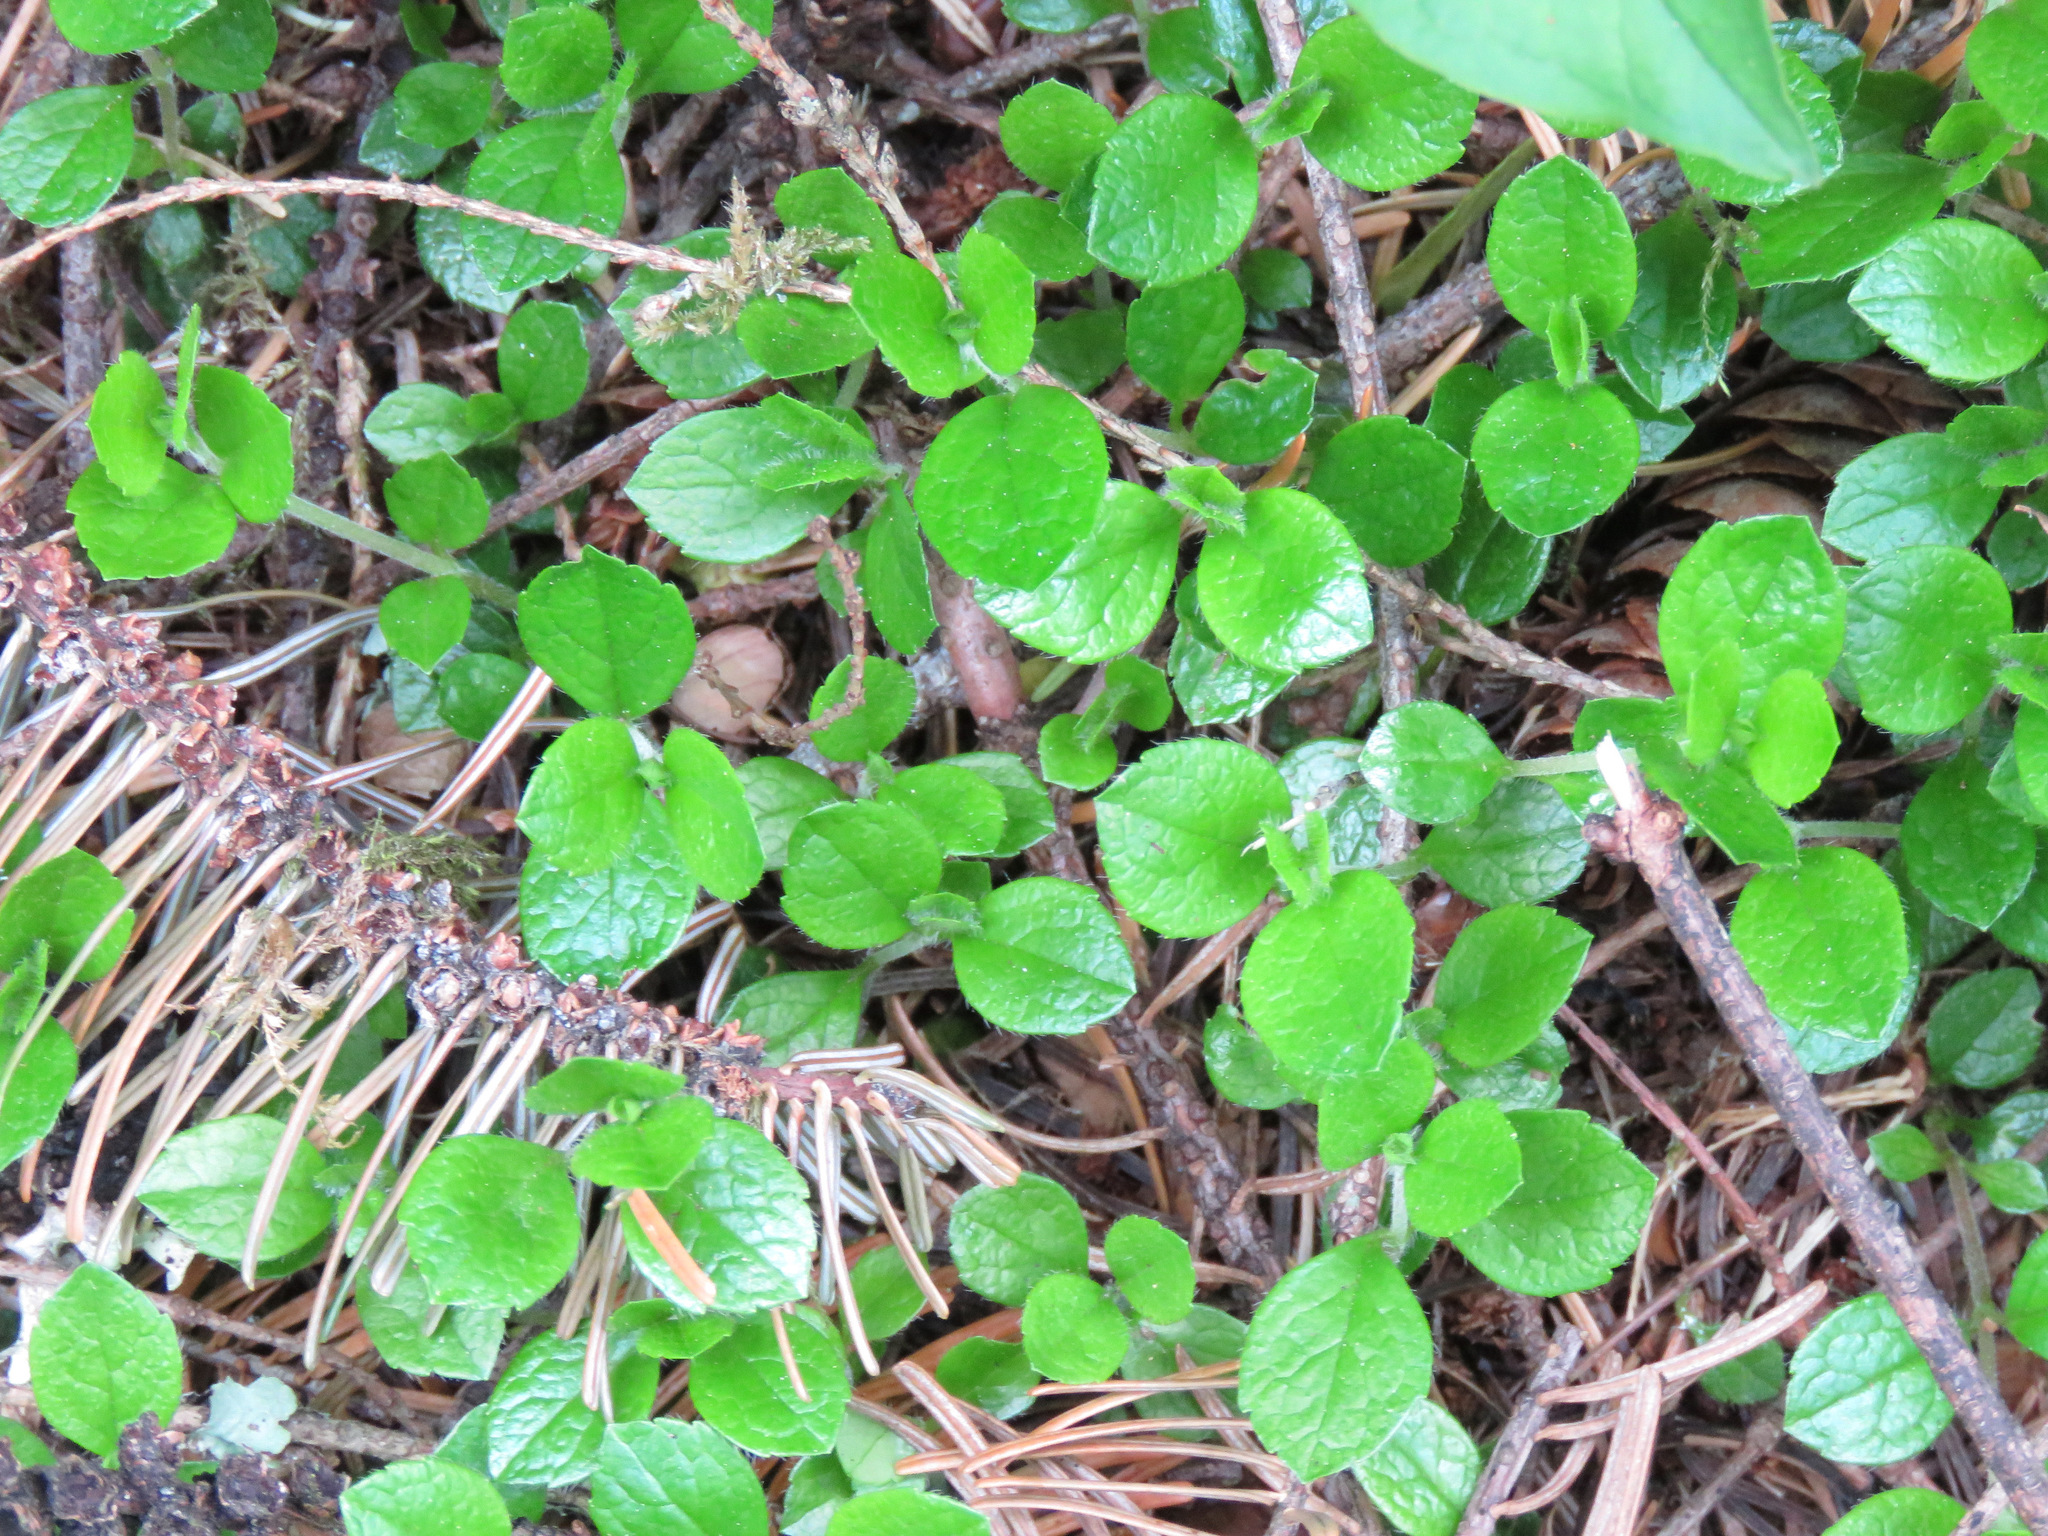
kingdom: Plantae
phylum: Tracheophyta
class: Magnoliopsida
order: Dipsacales
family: Caprifoliaceae
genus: Linnaea
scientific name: Linnaea borealis
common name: Twinflower
